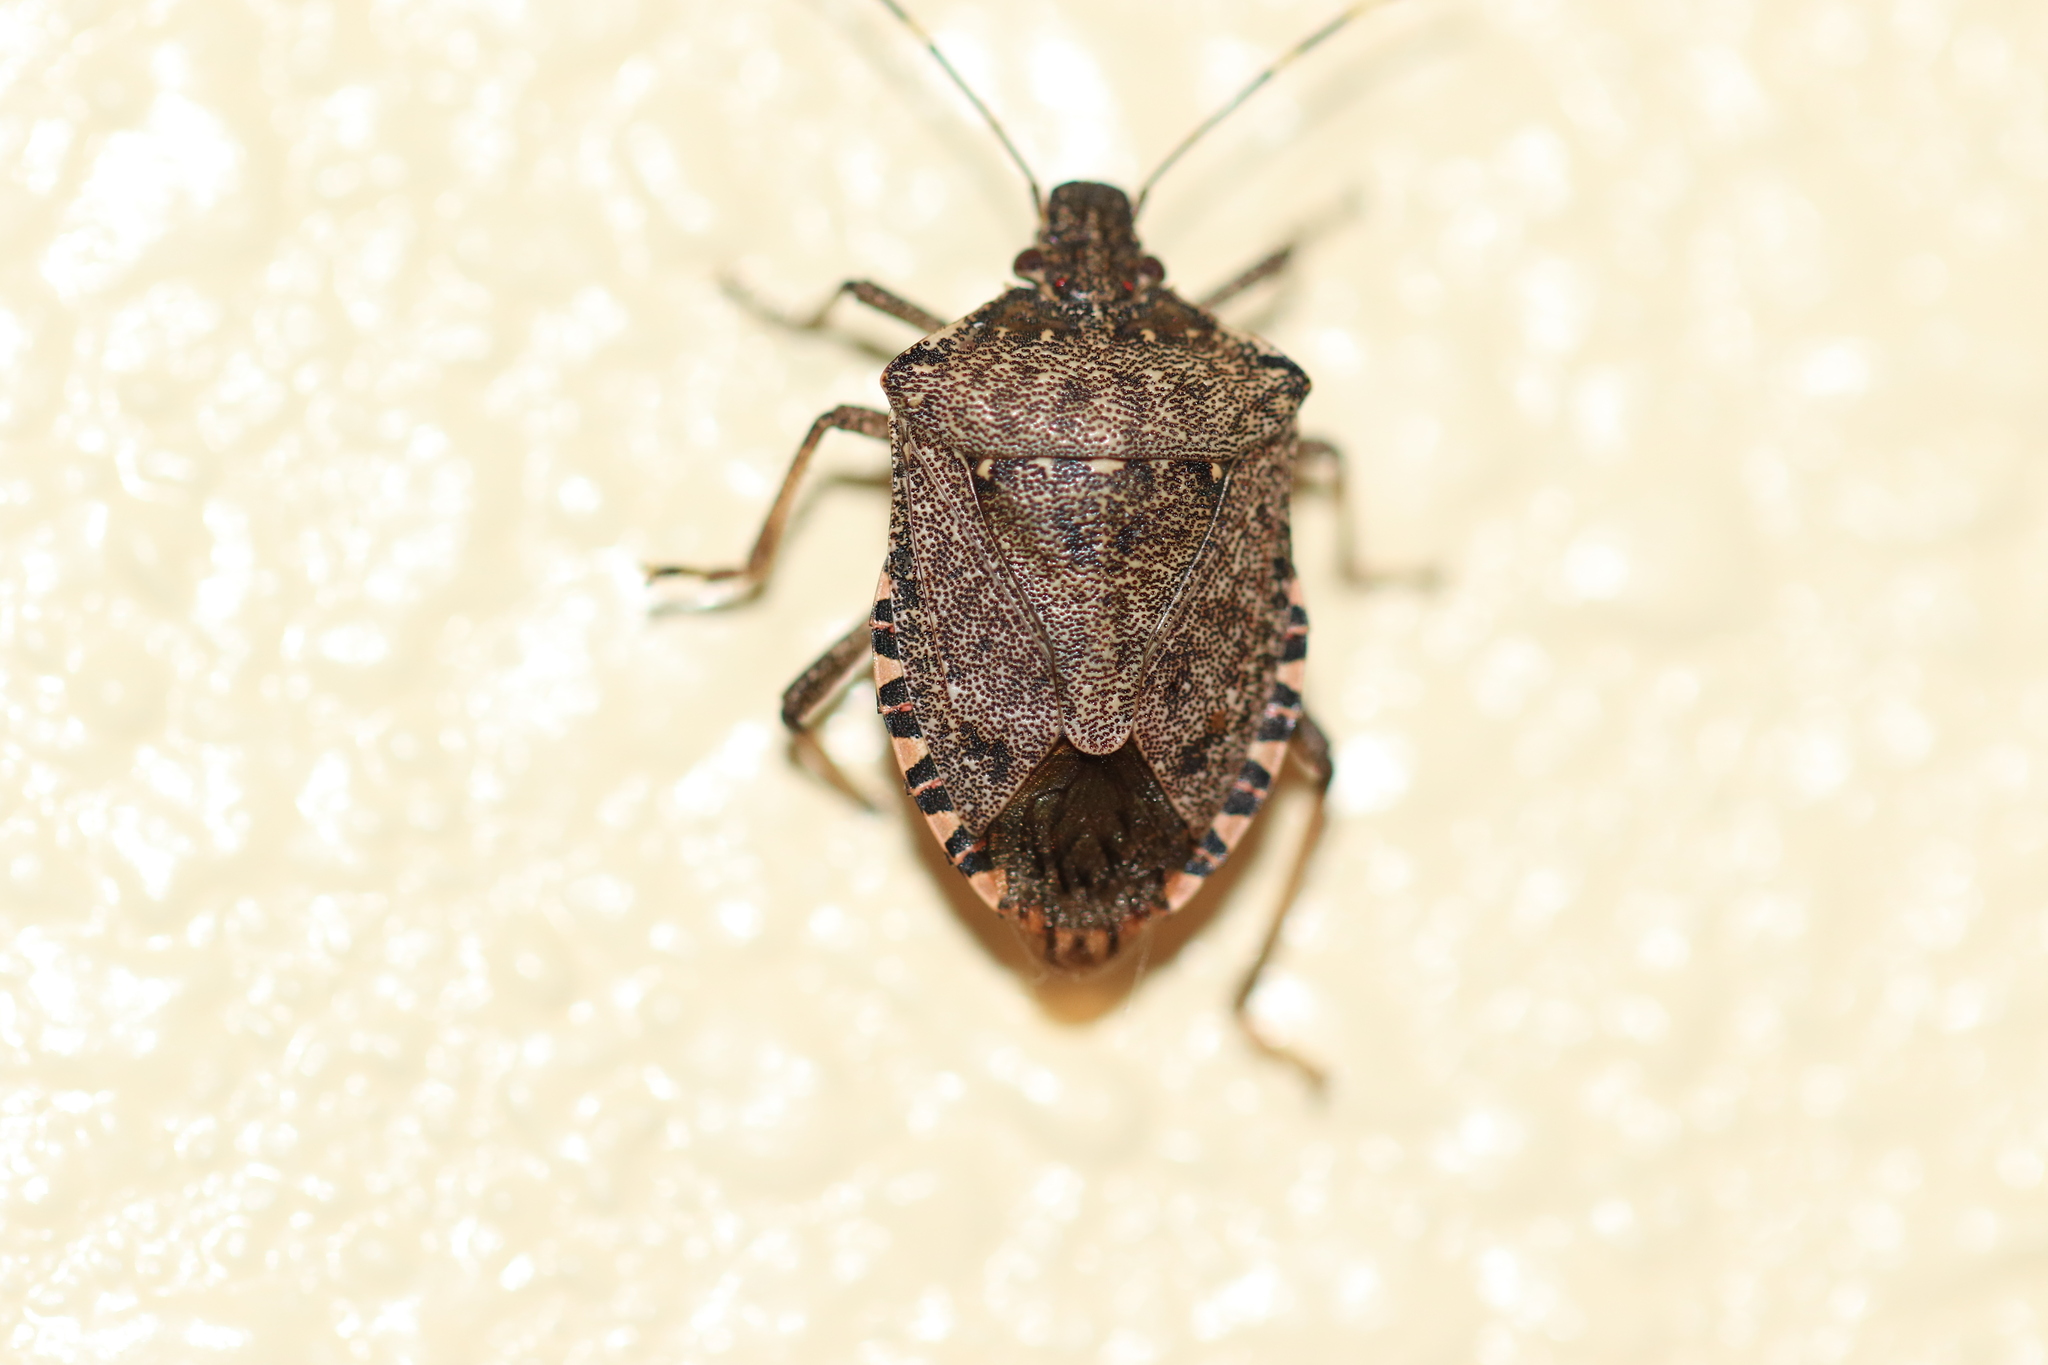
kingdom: Animalia
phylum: Arthropoda
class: Insecta
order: Hemiptera
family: Pentatomidae
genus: Halyomorpha
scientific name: Halyomorpha halys
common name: Brown marmorated stink bug
